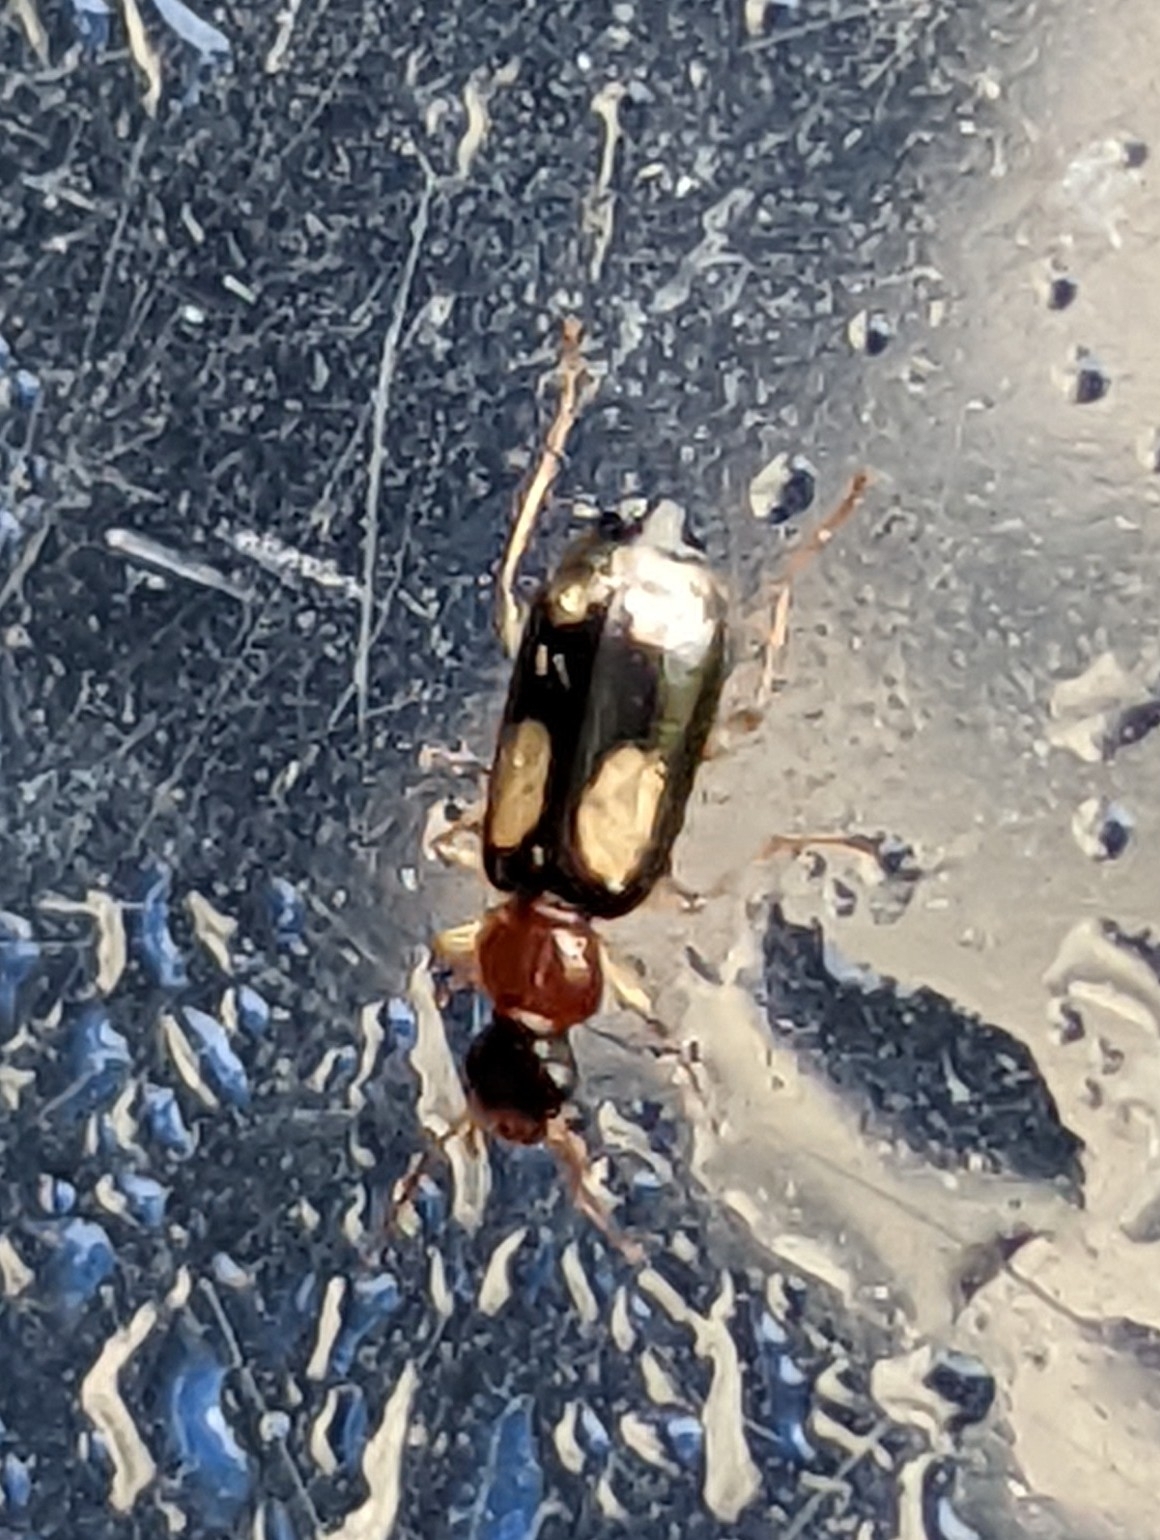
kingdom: Animalia
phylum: Arthropoda
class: Insecta
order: Coleoptera
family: Carabidae
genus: Dromius
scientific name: Dromius quadrimaculatus
